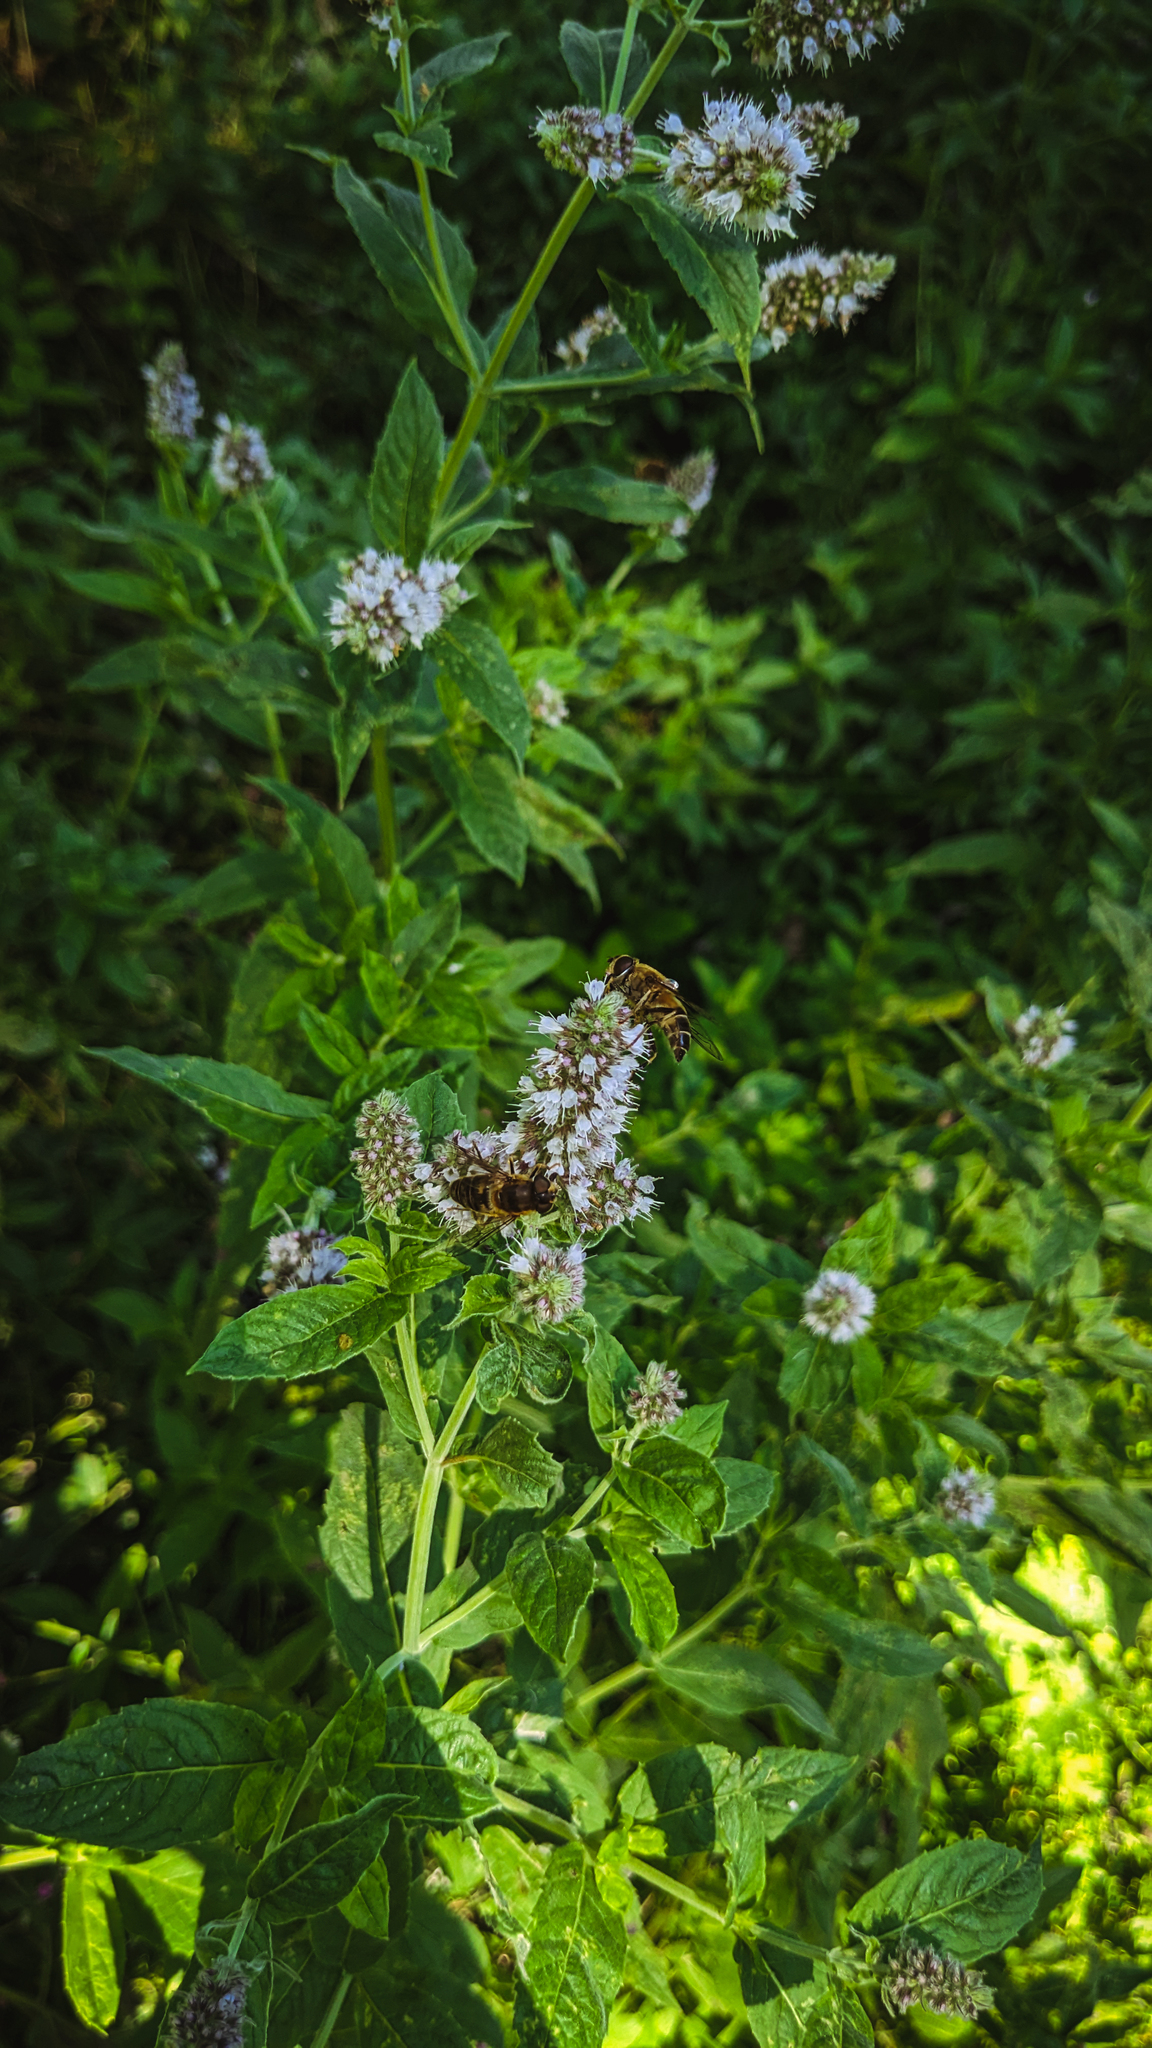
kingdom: Animalia
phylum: Arthropoda
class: Insecta
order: Diptera
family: Syrphidae
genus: Volucella
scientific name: Volucella inanis
